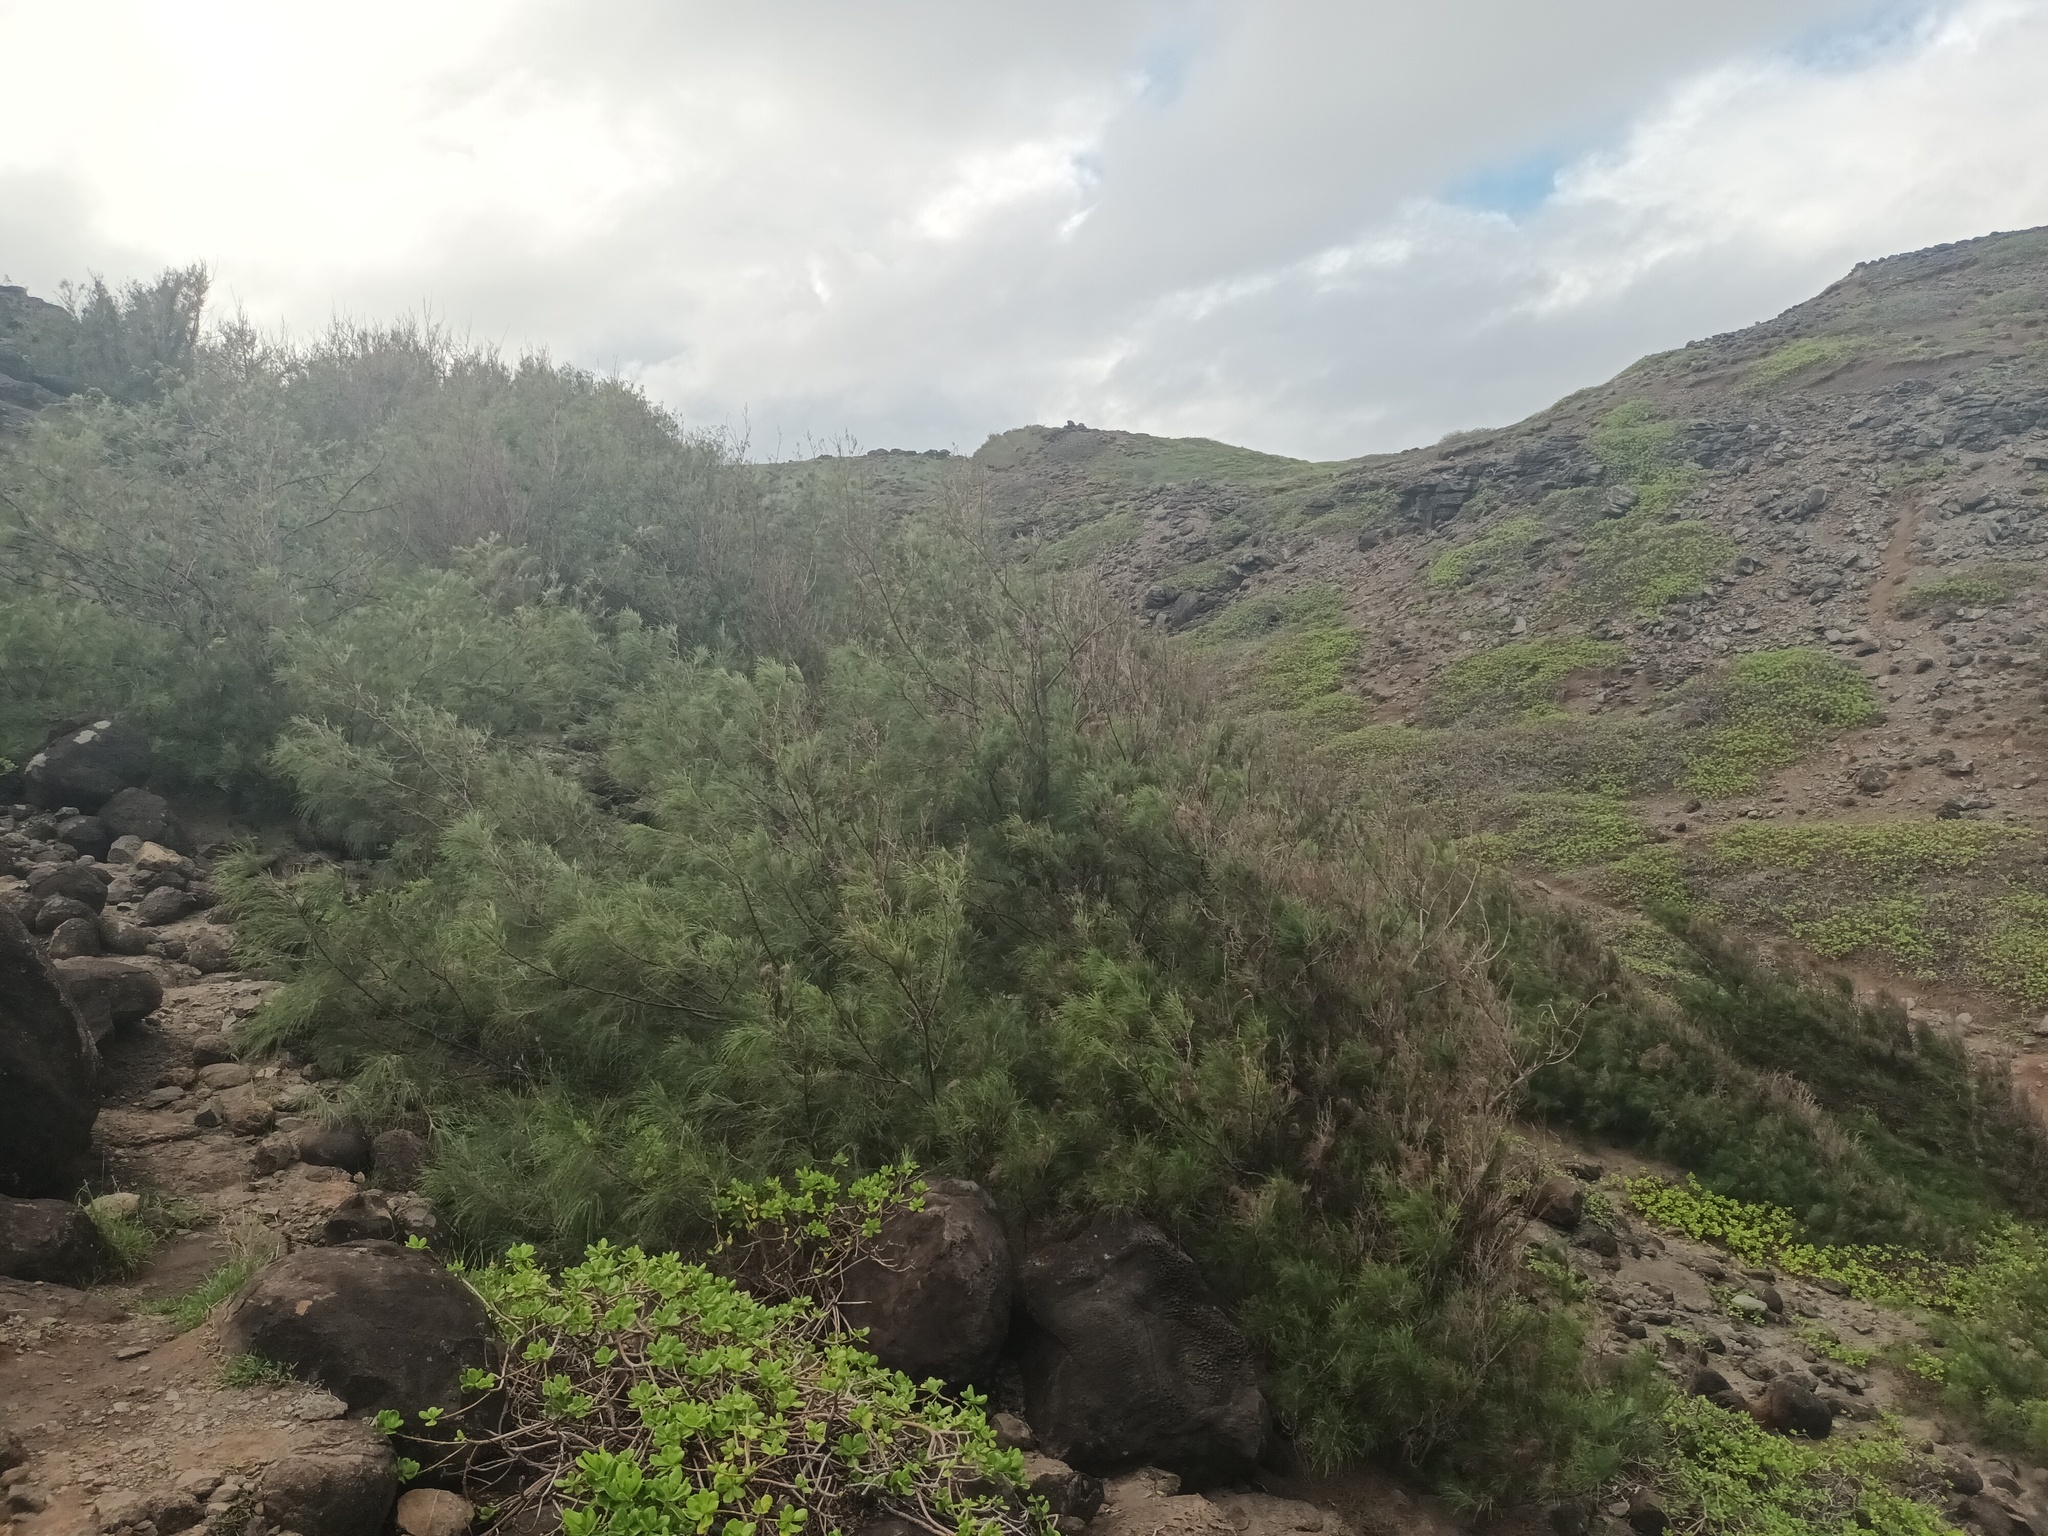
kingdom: Plantae
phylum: Tracheophyta
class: Magnoliopsida
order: Fagales
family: Casuarinaceae
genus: Casuarina
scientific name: Casuarina equisetifolia
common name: Beach sheoak
